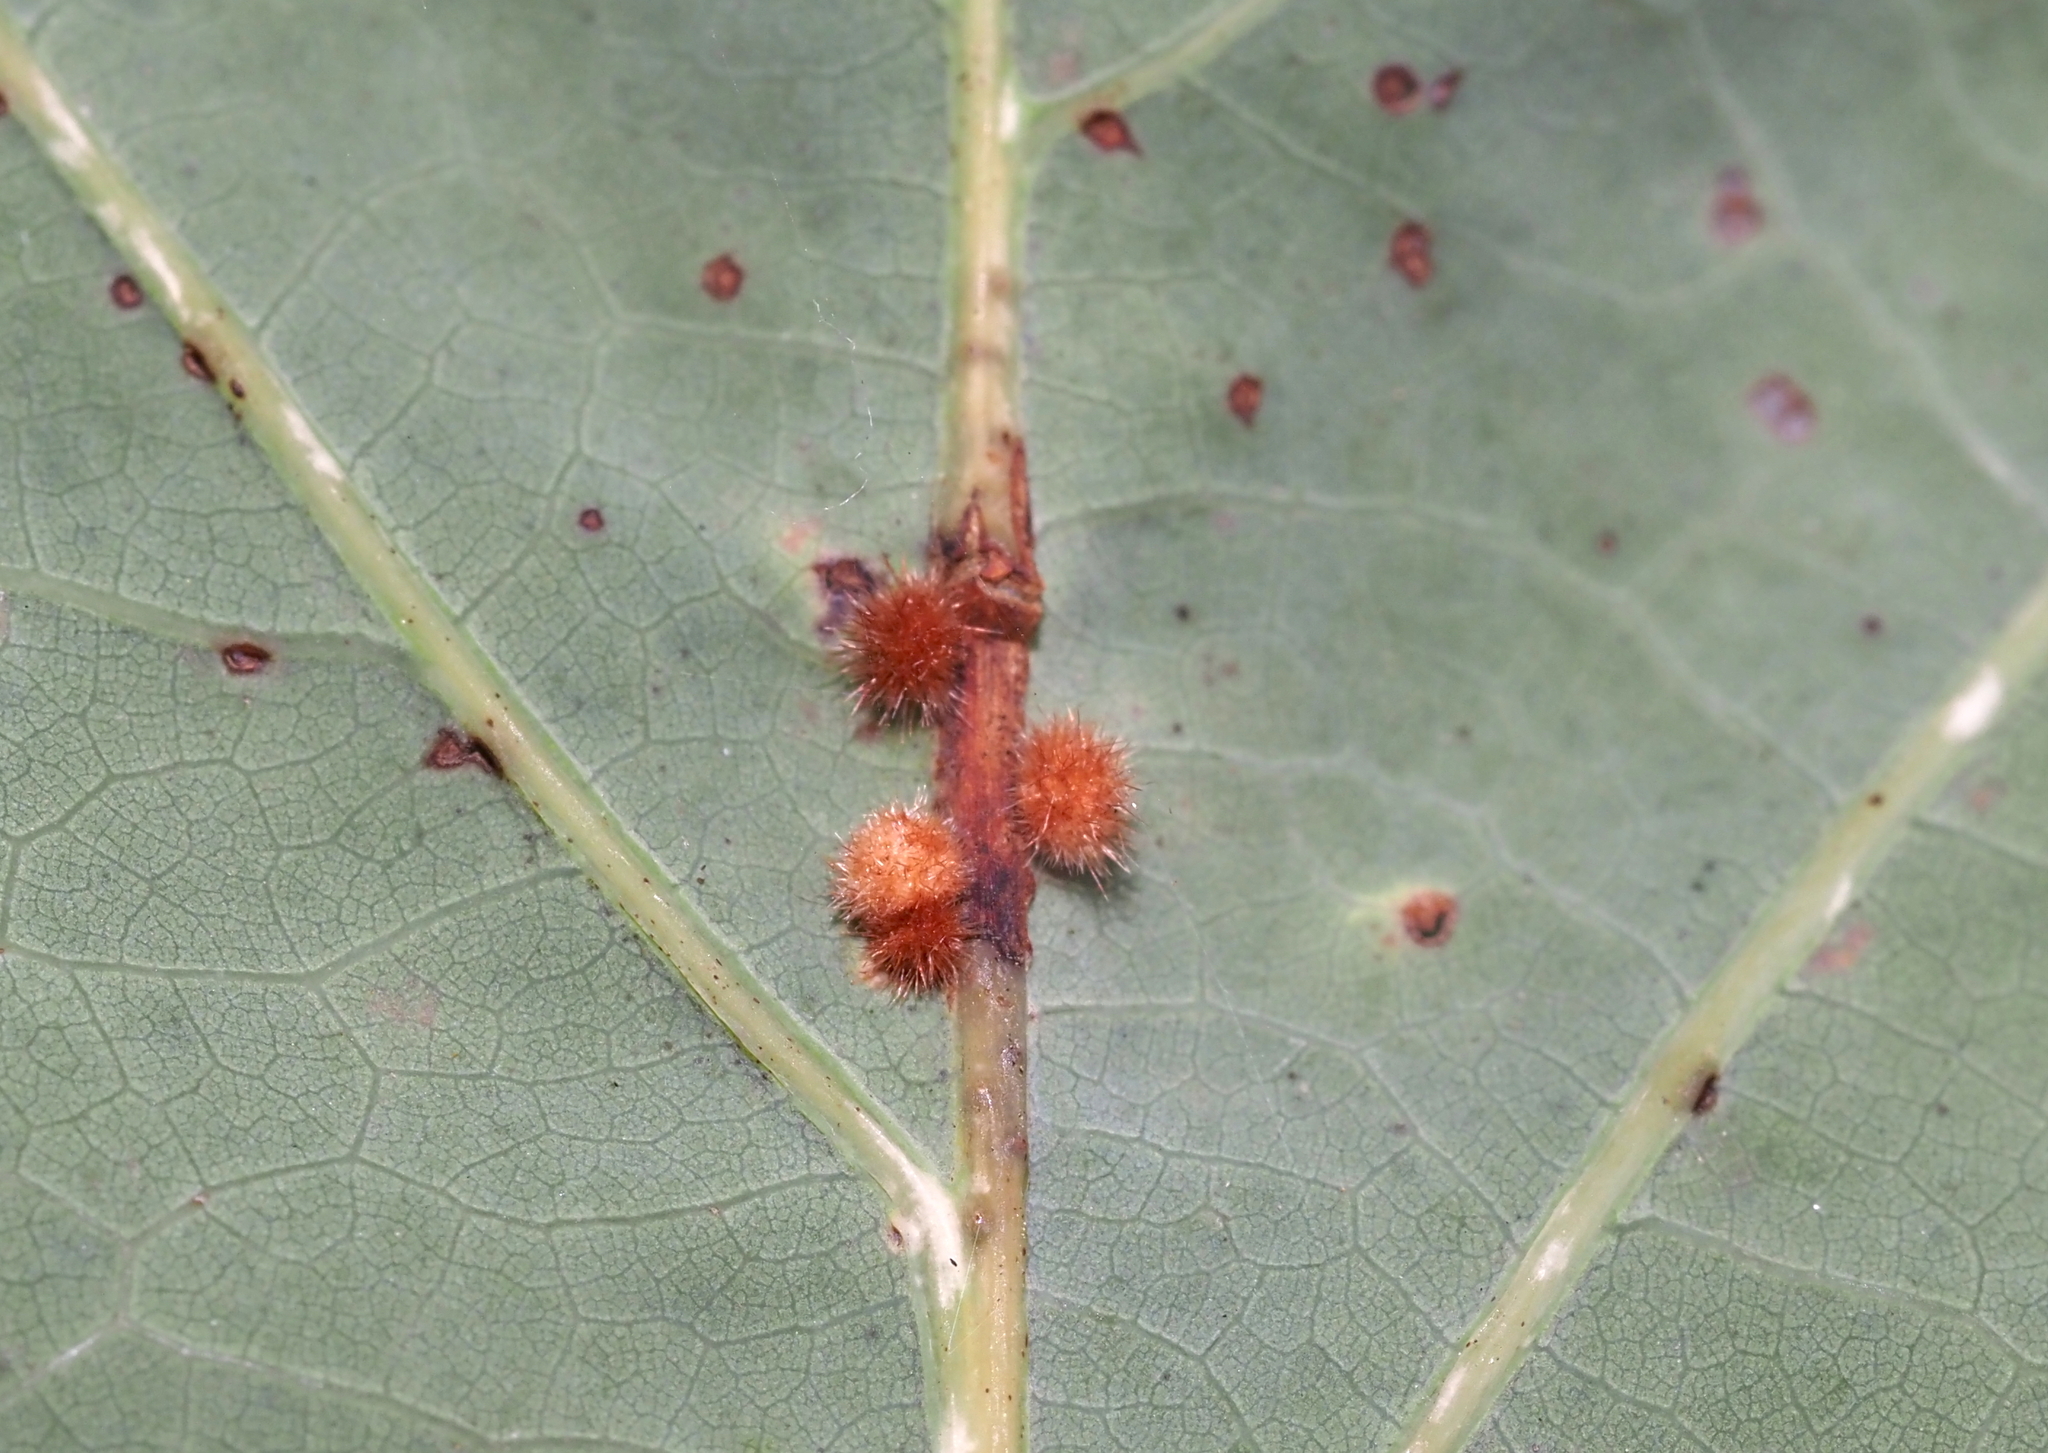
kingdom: Animalia
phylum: Arthropoda
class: Insecta
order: Hymenoptera
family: Cynipidae
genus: Andricus
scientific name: Andricus
